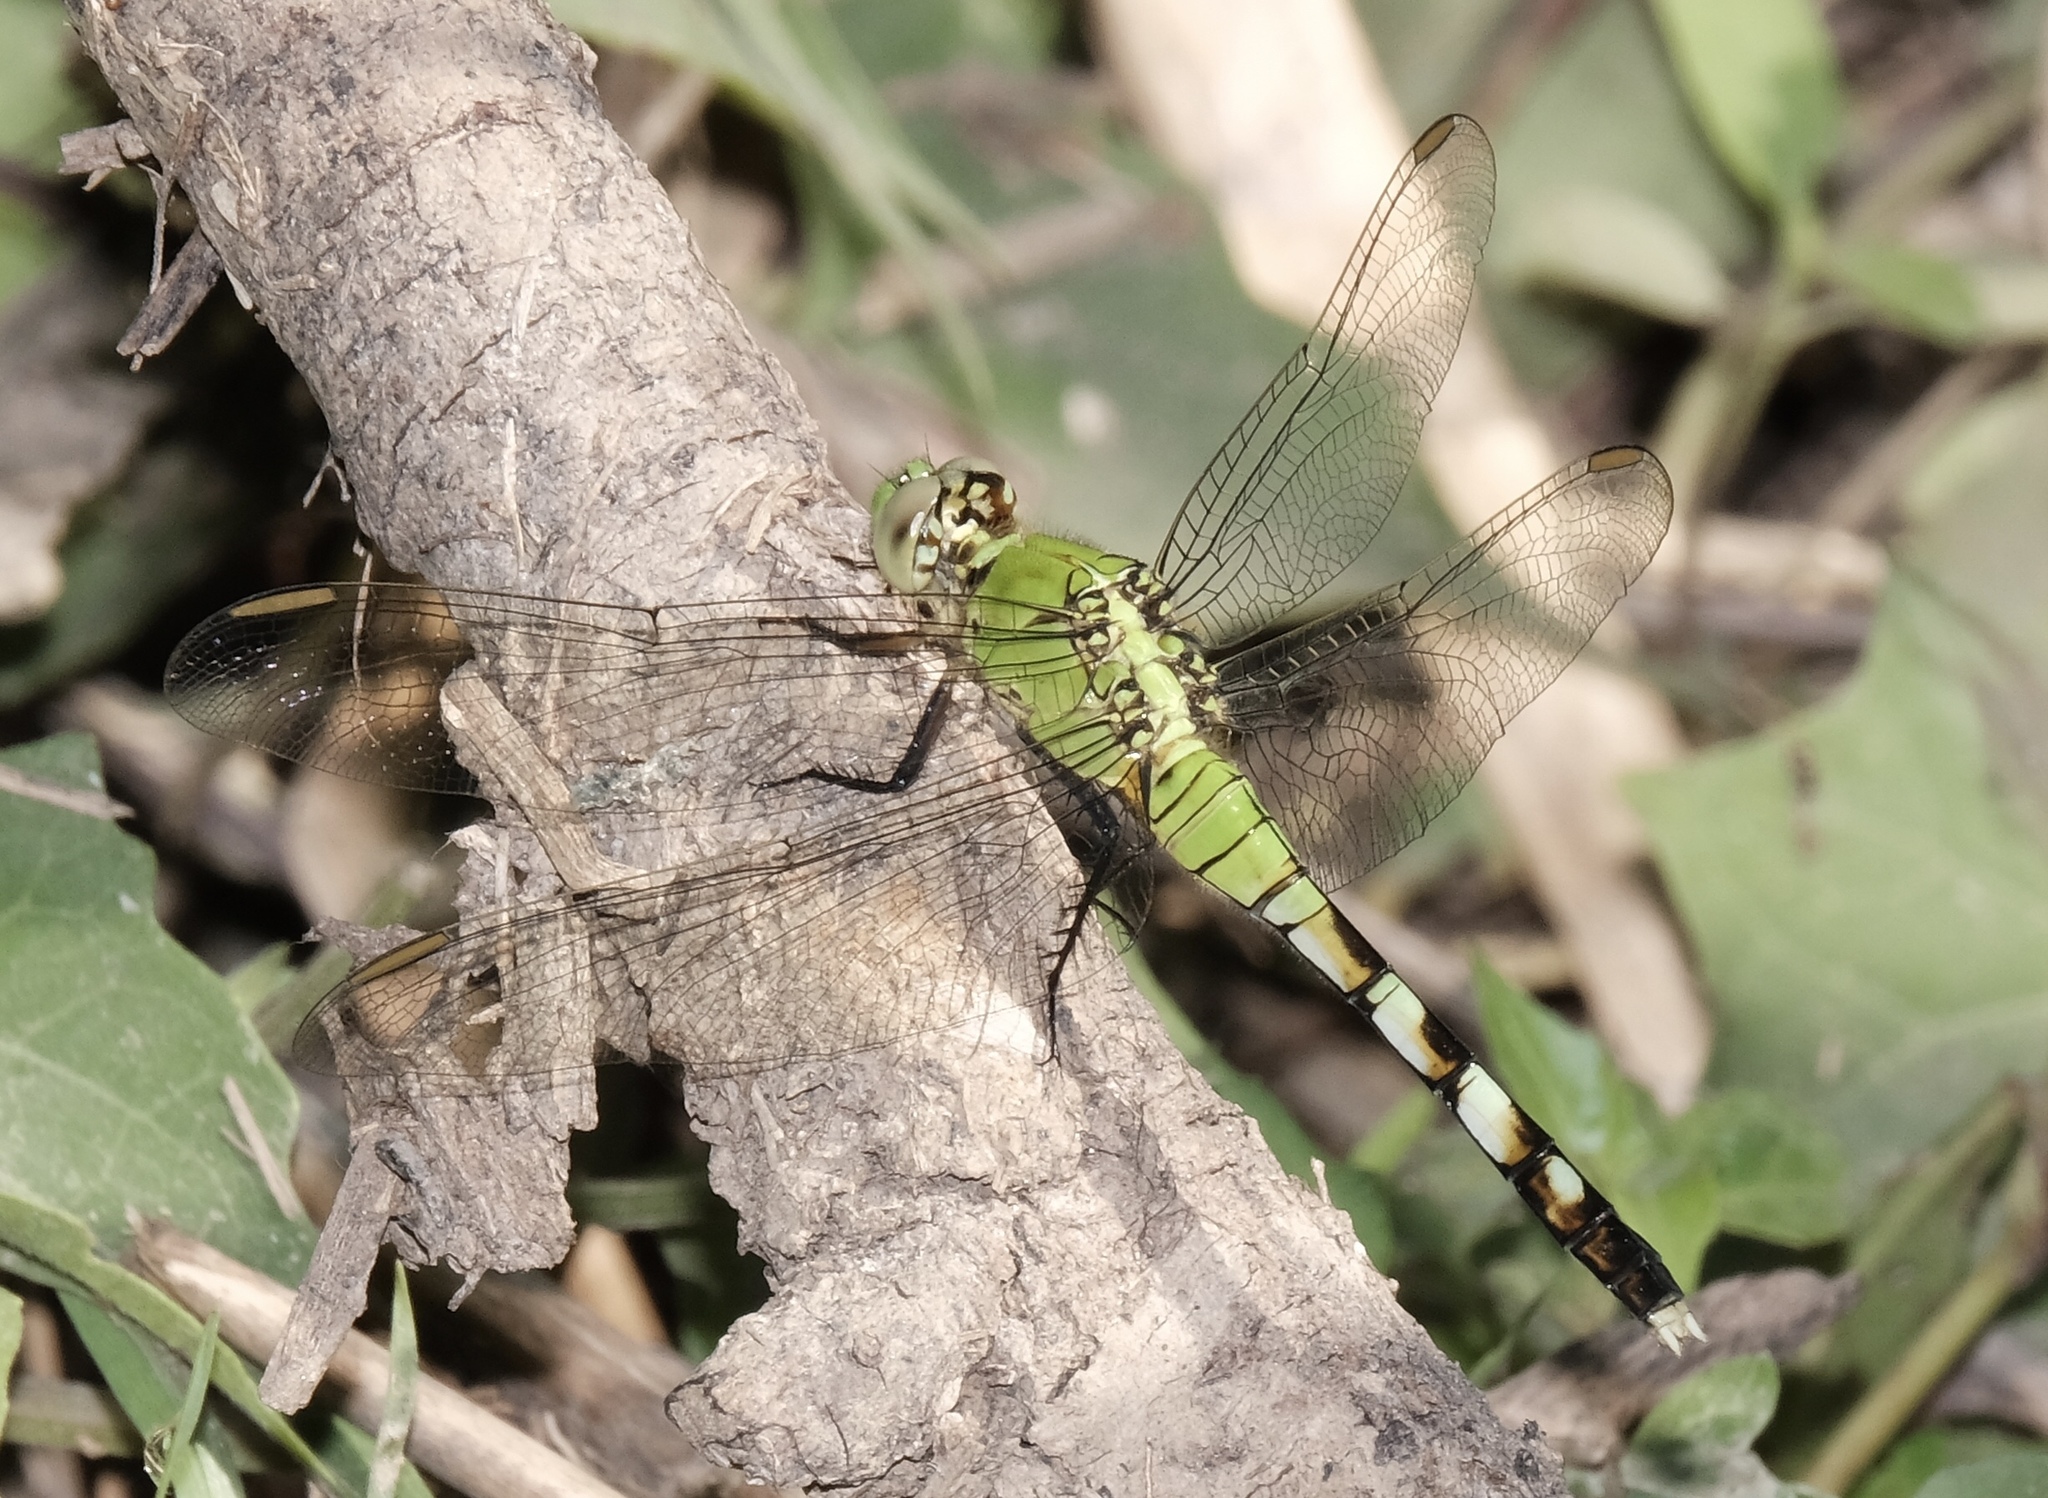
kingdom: Animalia
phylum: Arthropoda
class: Insecta
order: Odonata
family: Libellulidae
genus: Erythemis
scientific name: Erythemis simplicicollis
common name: Eastern pondhawk
